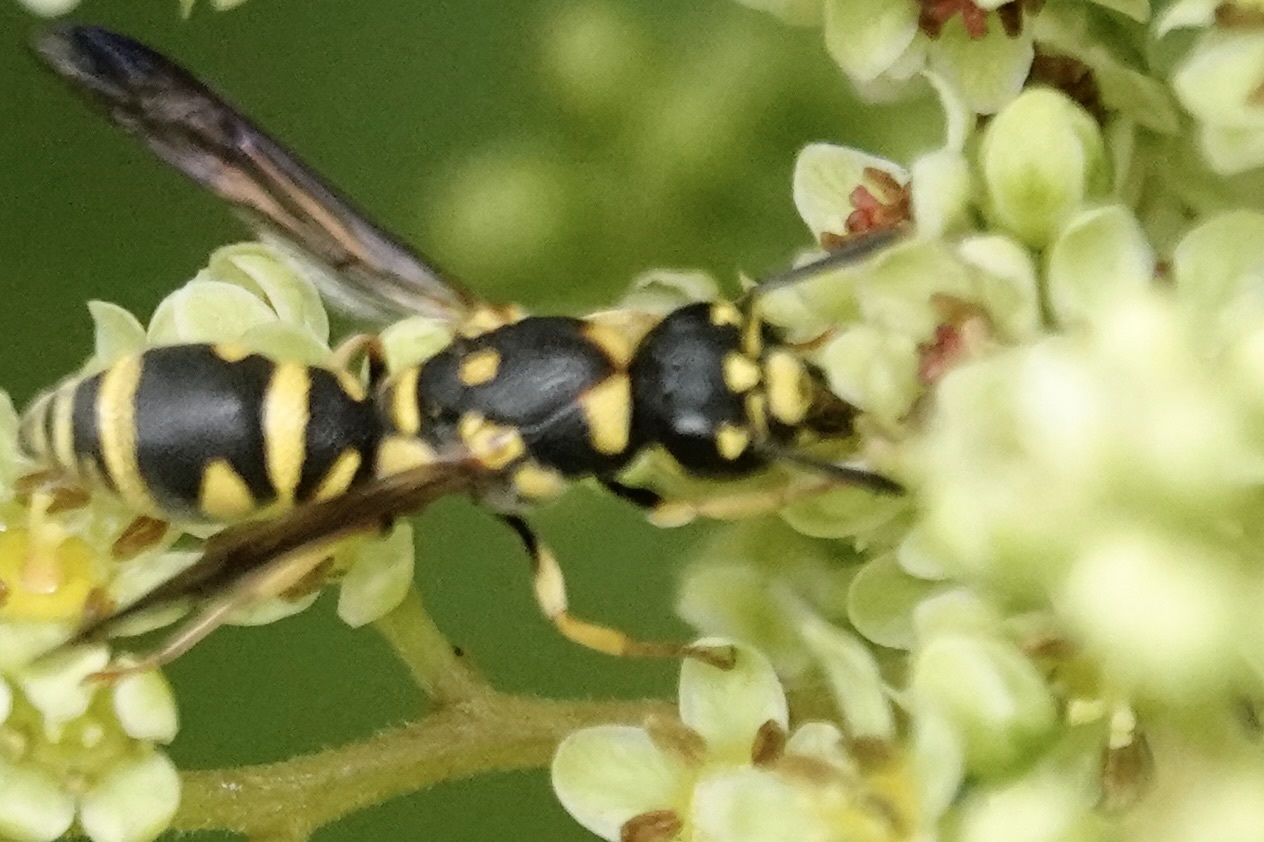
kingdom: Animalia
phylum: Arthropoda
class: Insecta
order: Hymenoptera
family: Eumenidae
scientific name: Eumenidae
